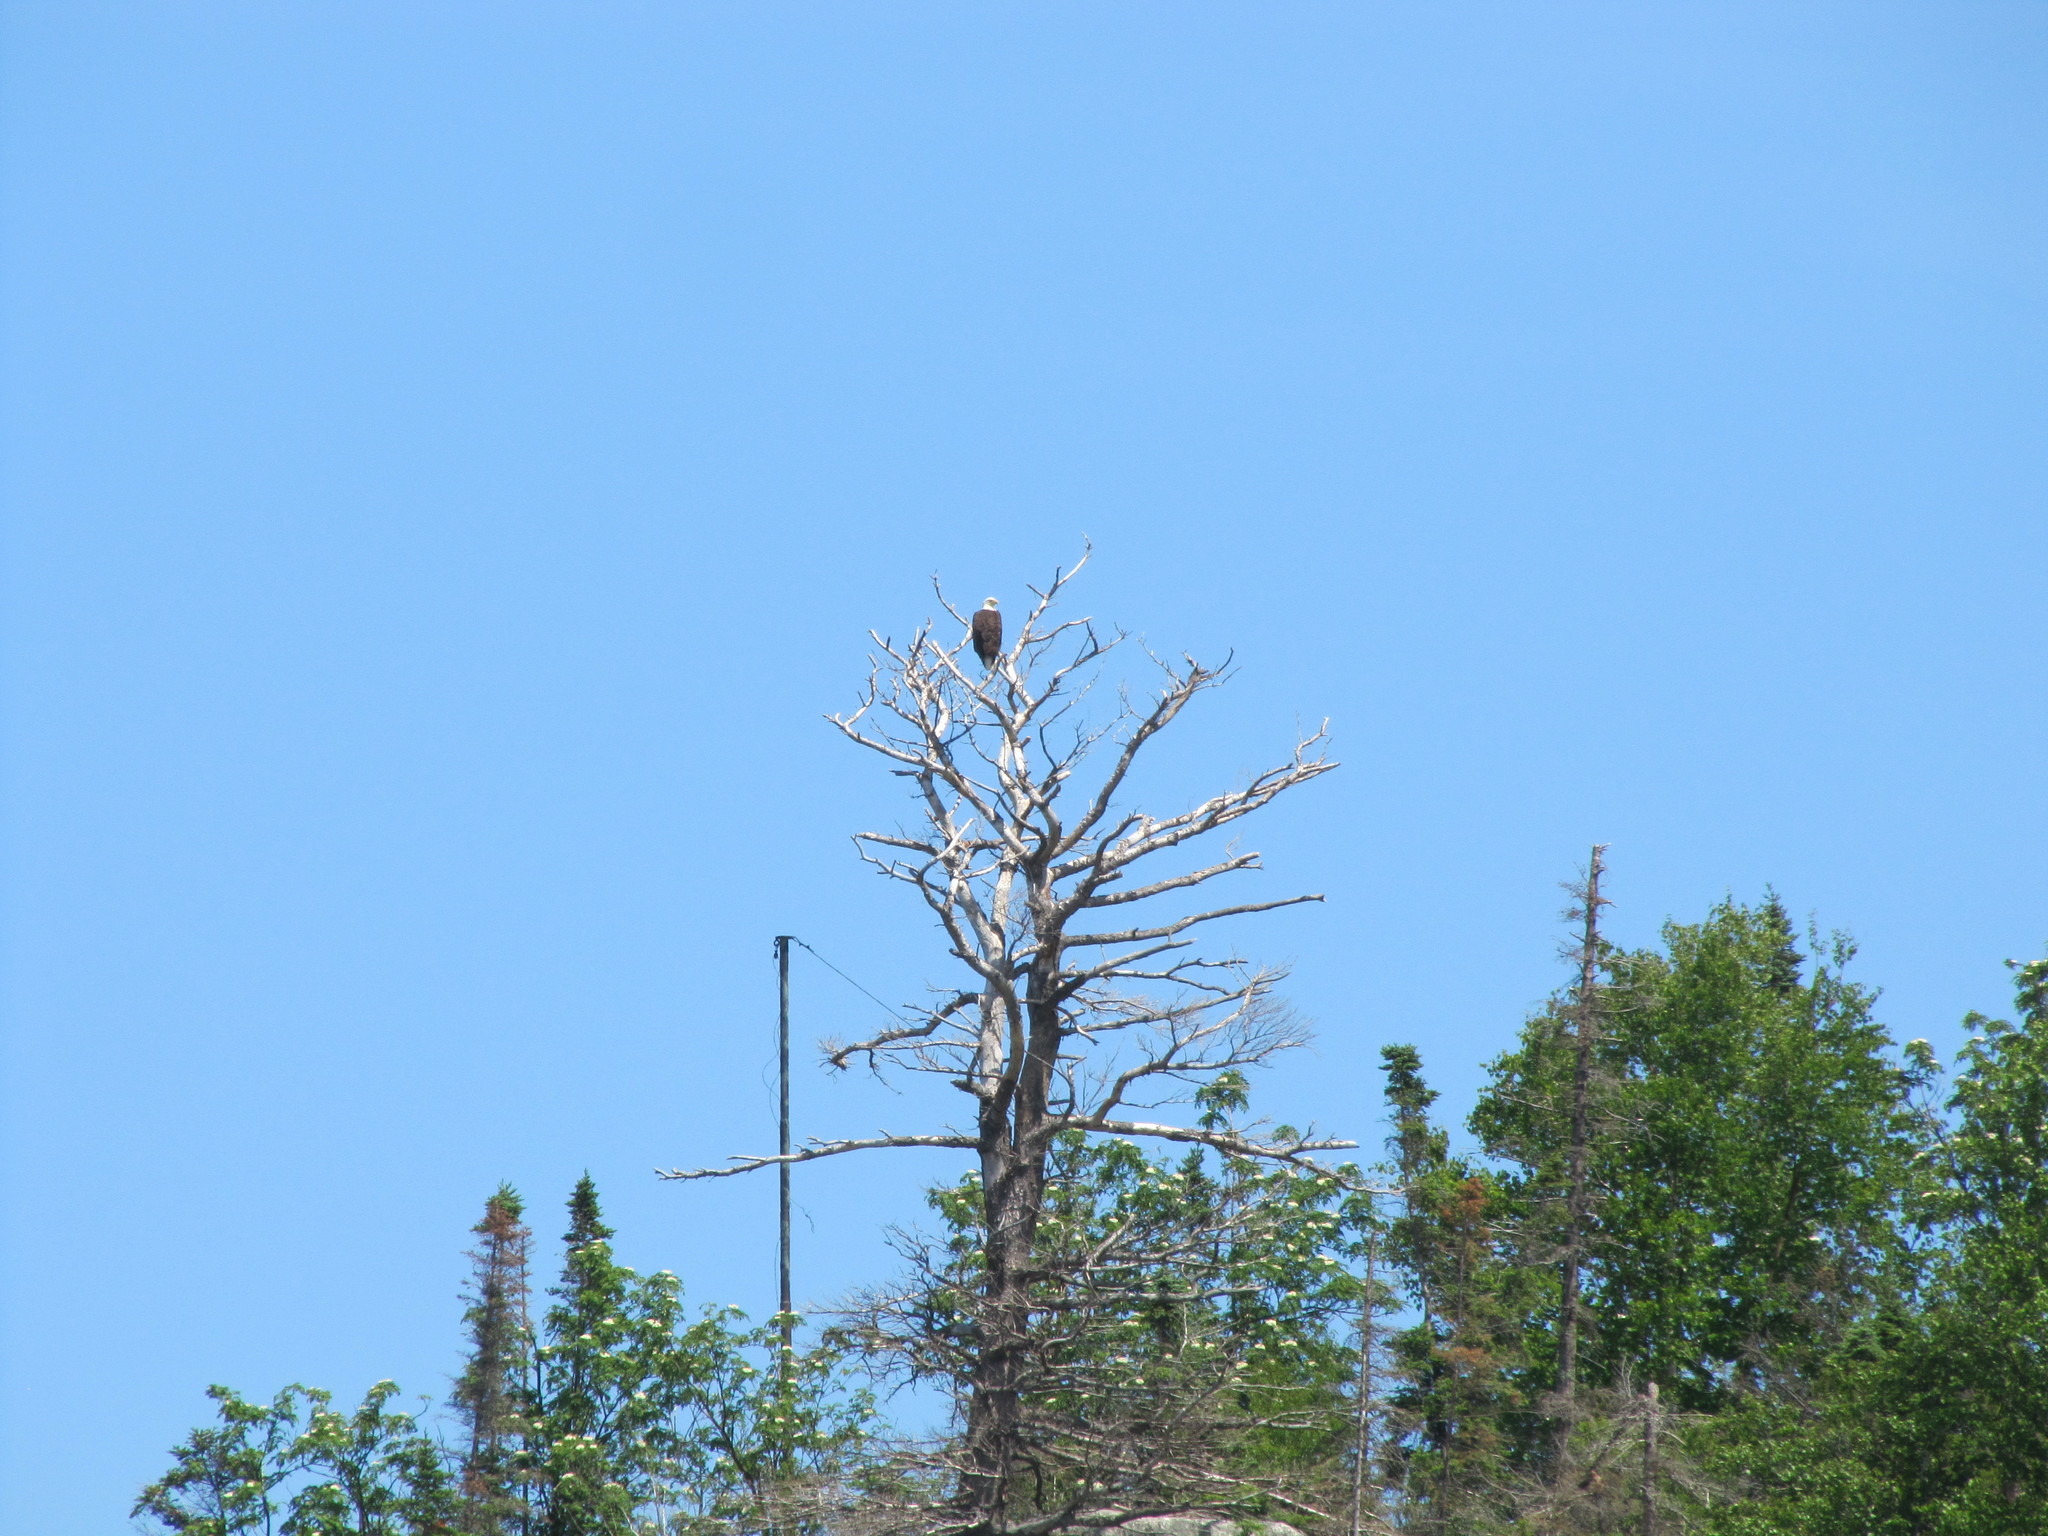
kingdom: Animalia
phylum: Chordata
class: Aves
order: Accipitriformes
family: Accipitridae
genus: Haliaeetus
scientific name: Haliaeetus leucocephalus
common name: Bald eagle
